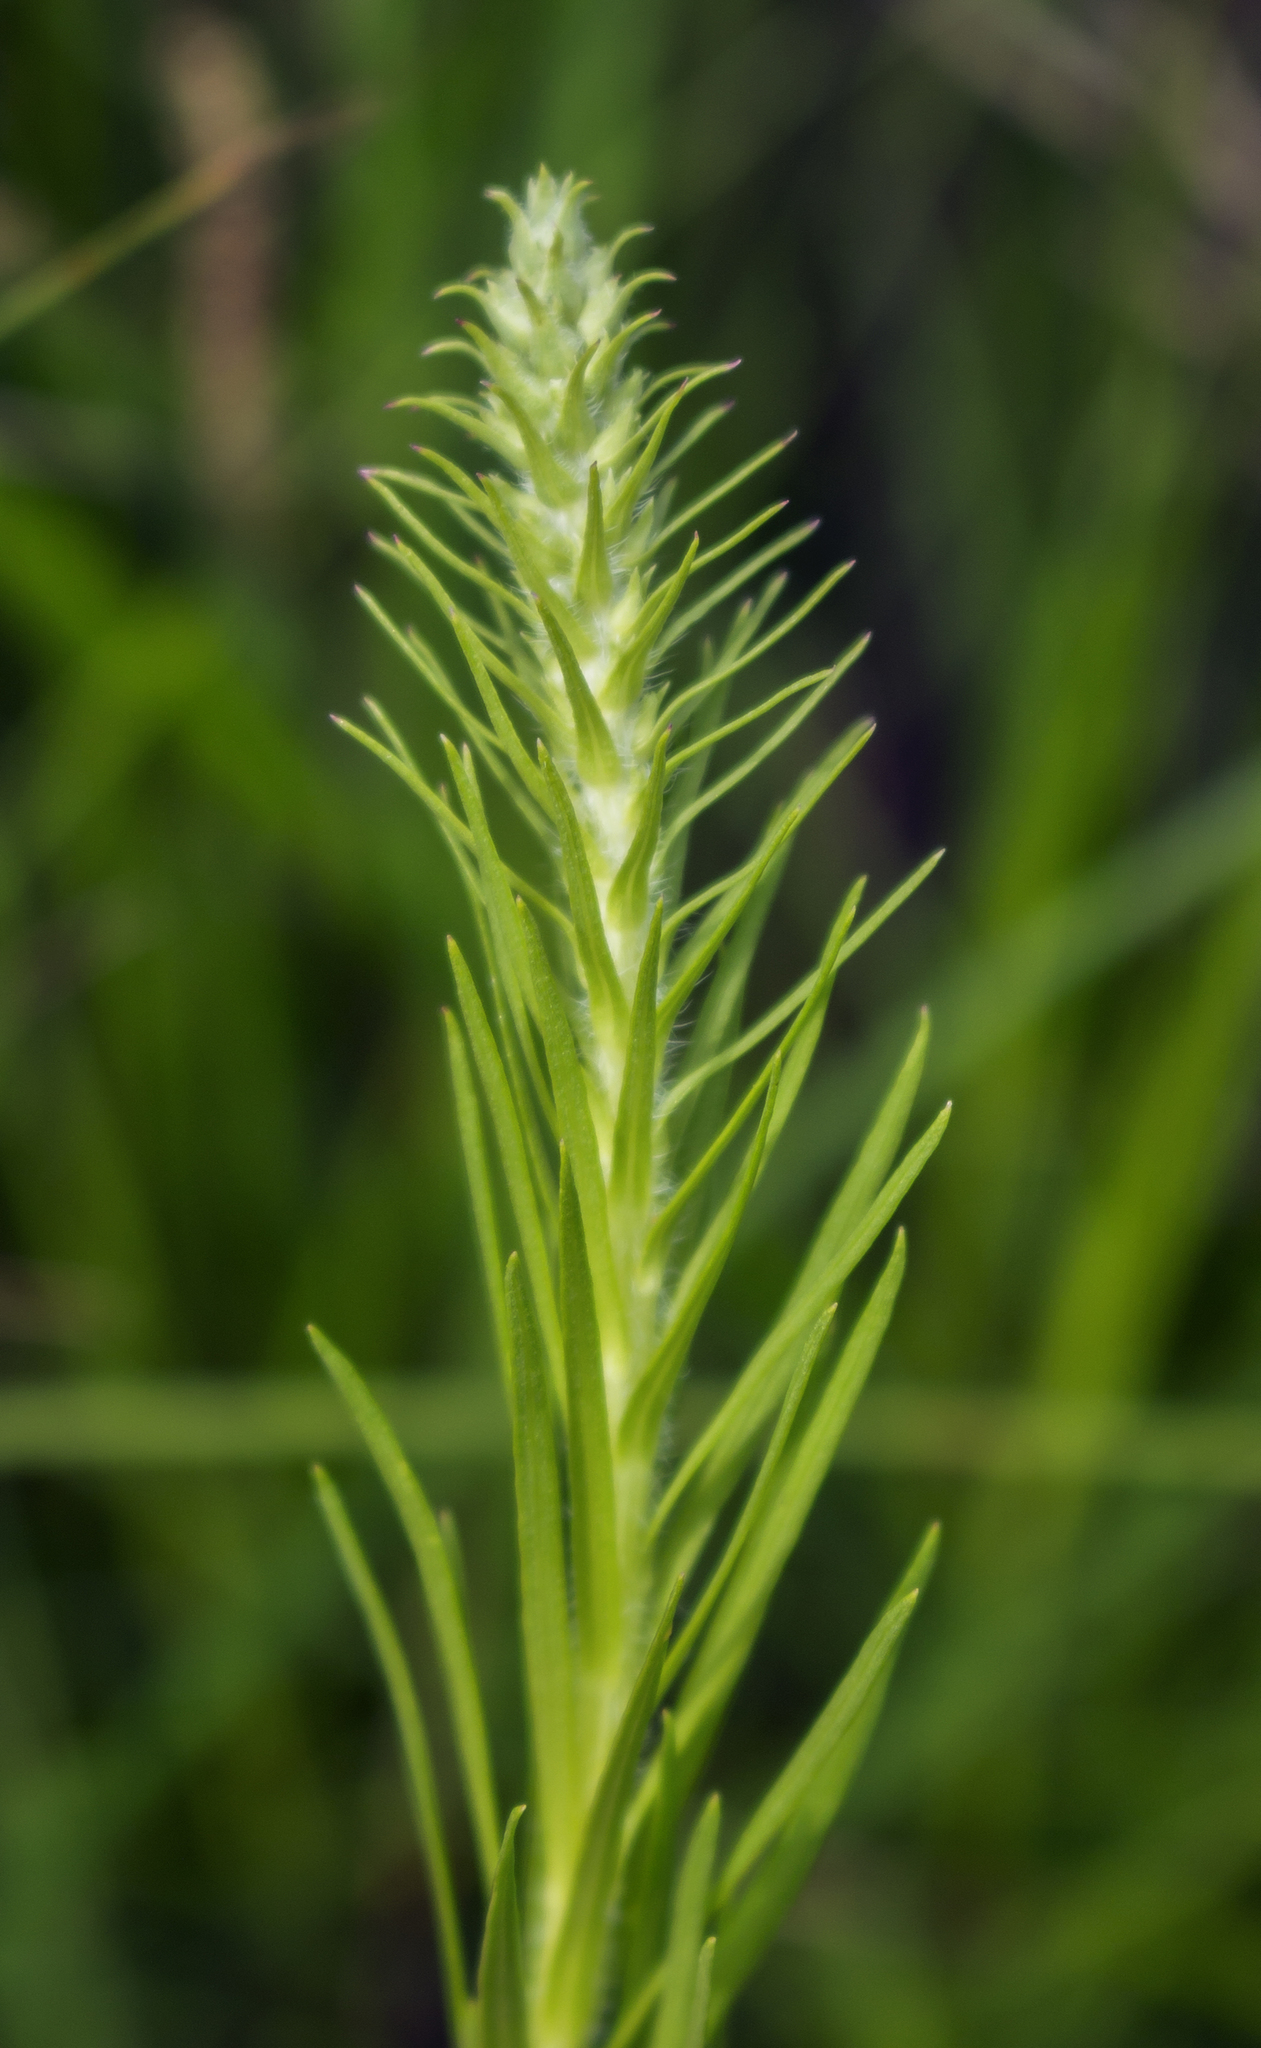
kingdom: Plantae
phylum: Tracheophyta
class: Magnoliopsida
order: Asterales
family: Asteraceae
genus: Liatris
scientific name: Liatris pycnostachya
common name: Cattail gayfeather
